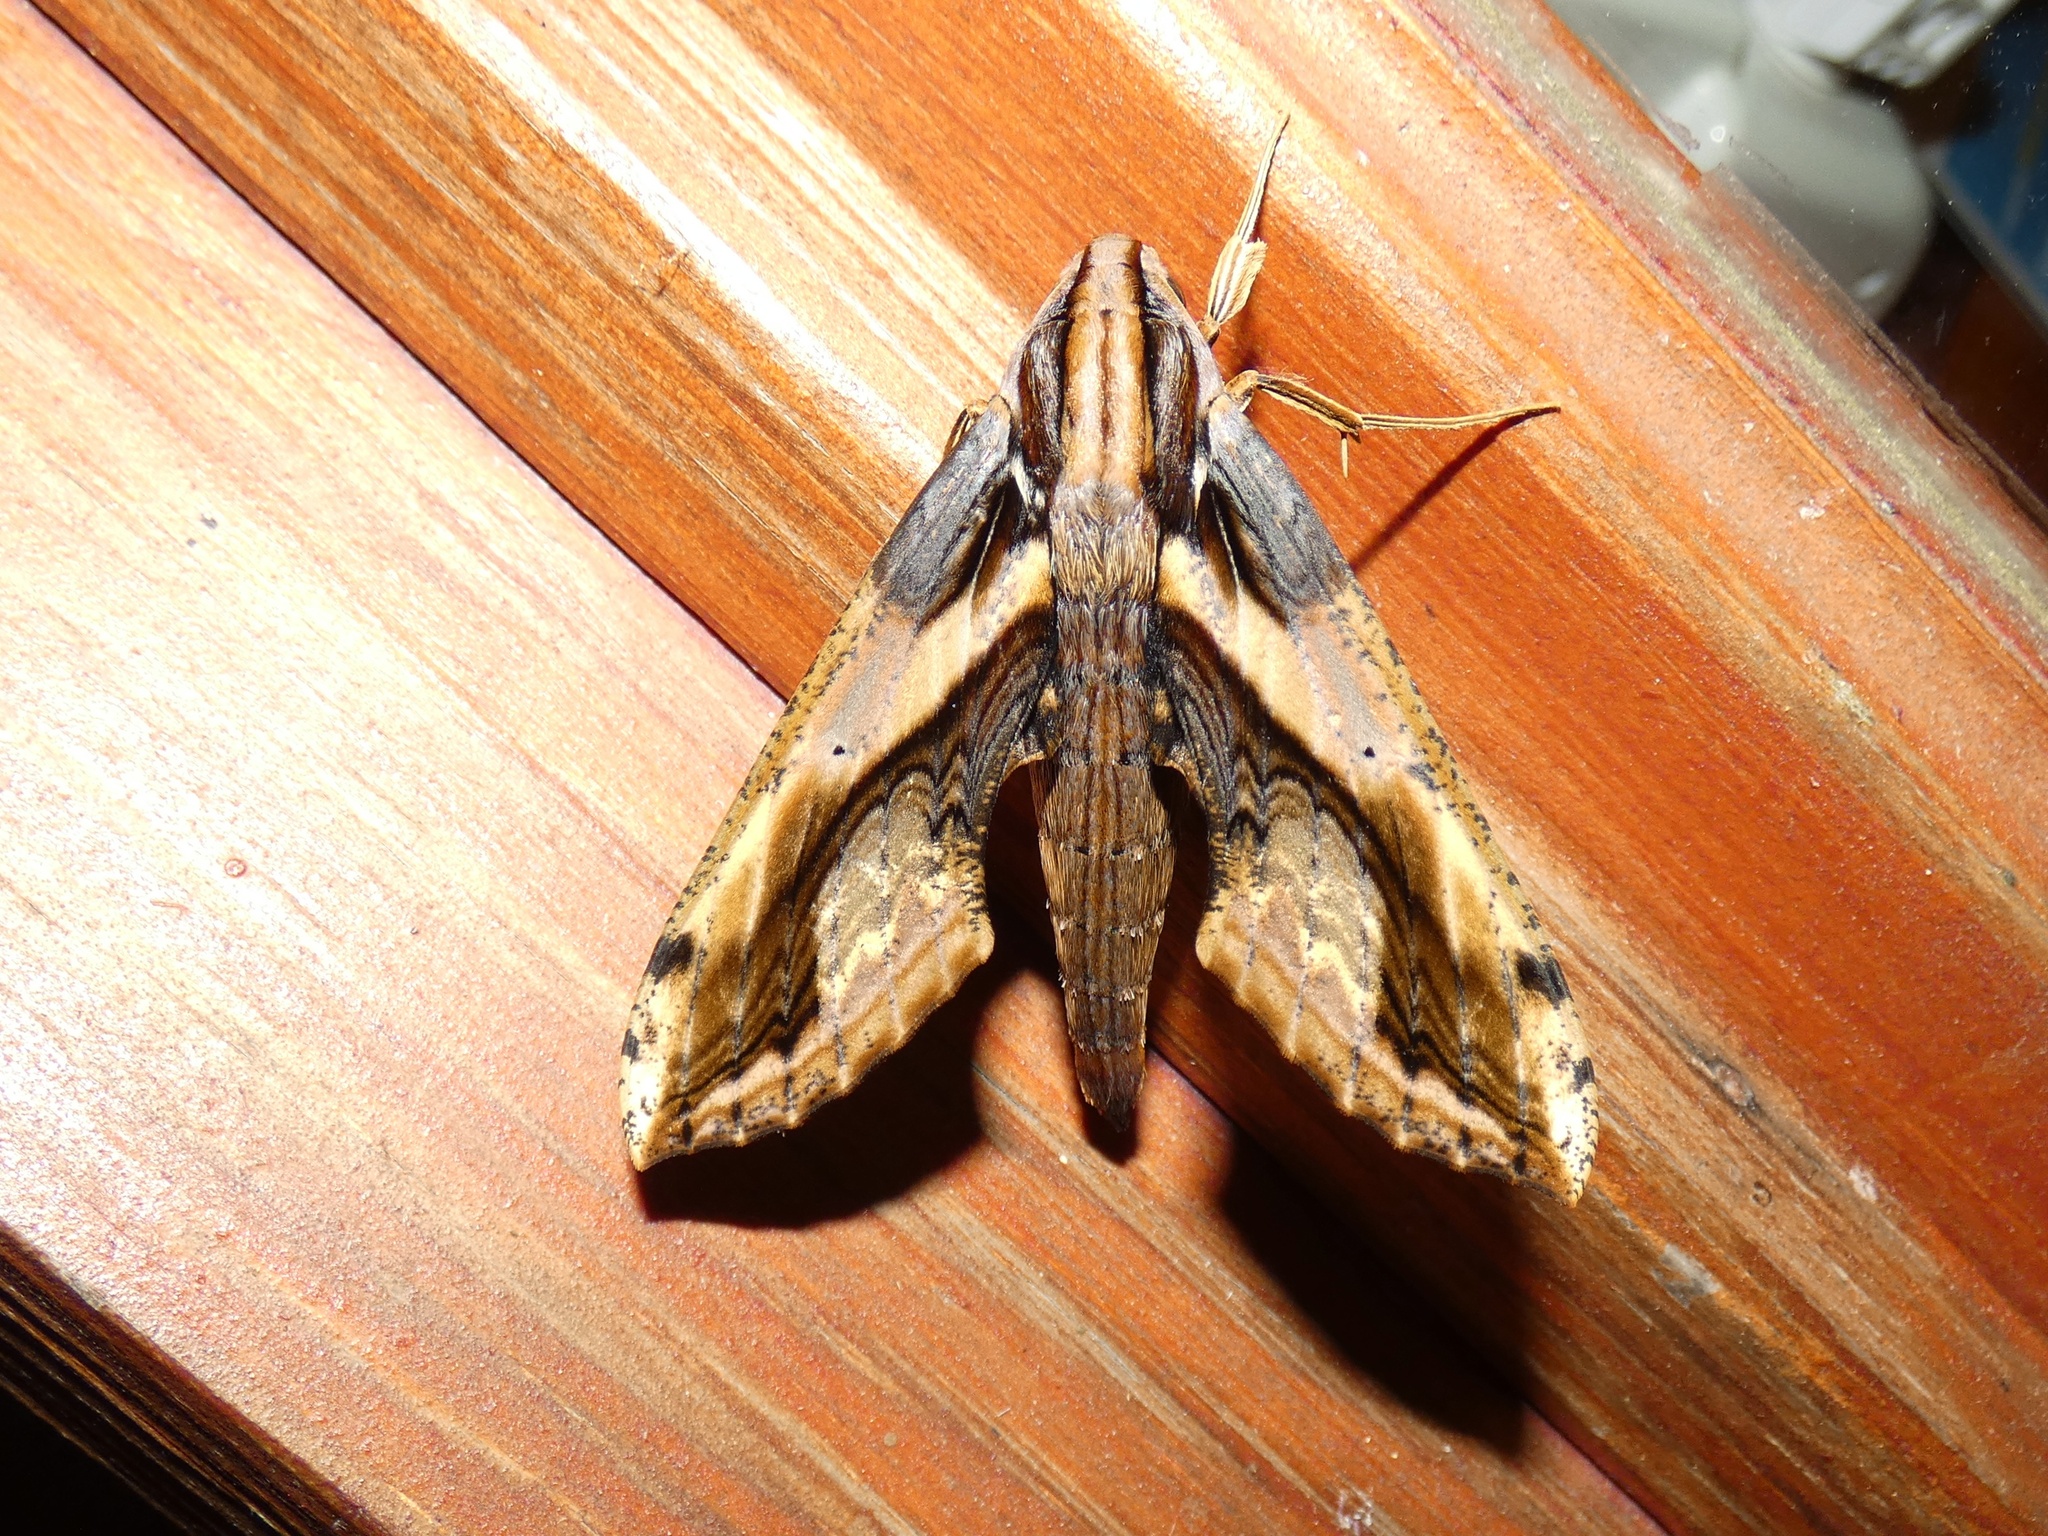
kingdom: Animalia
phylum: Arthropoda
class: Insecta
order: Lepidoptera
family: Sphingidae
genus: Xylophanes
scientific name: Xylophanes ceratomioides
